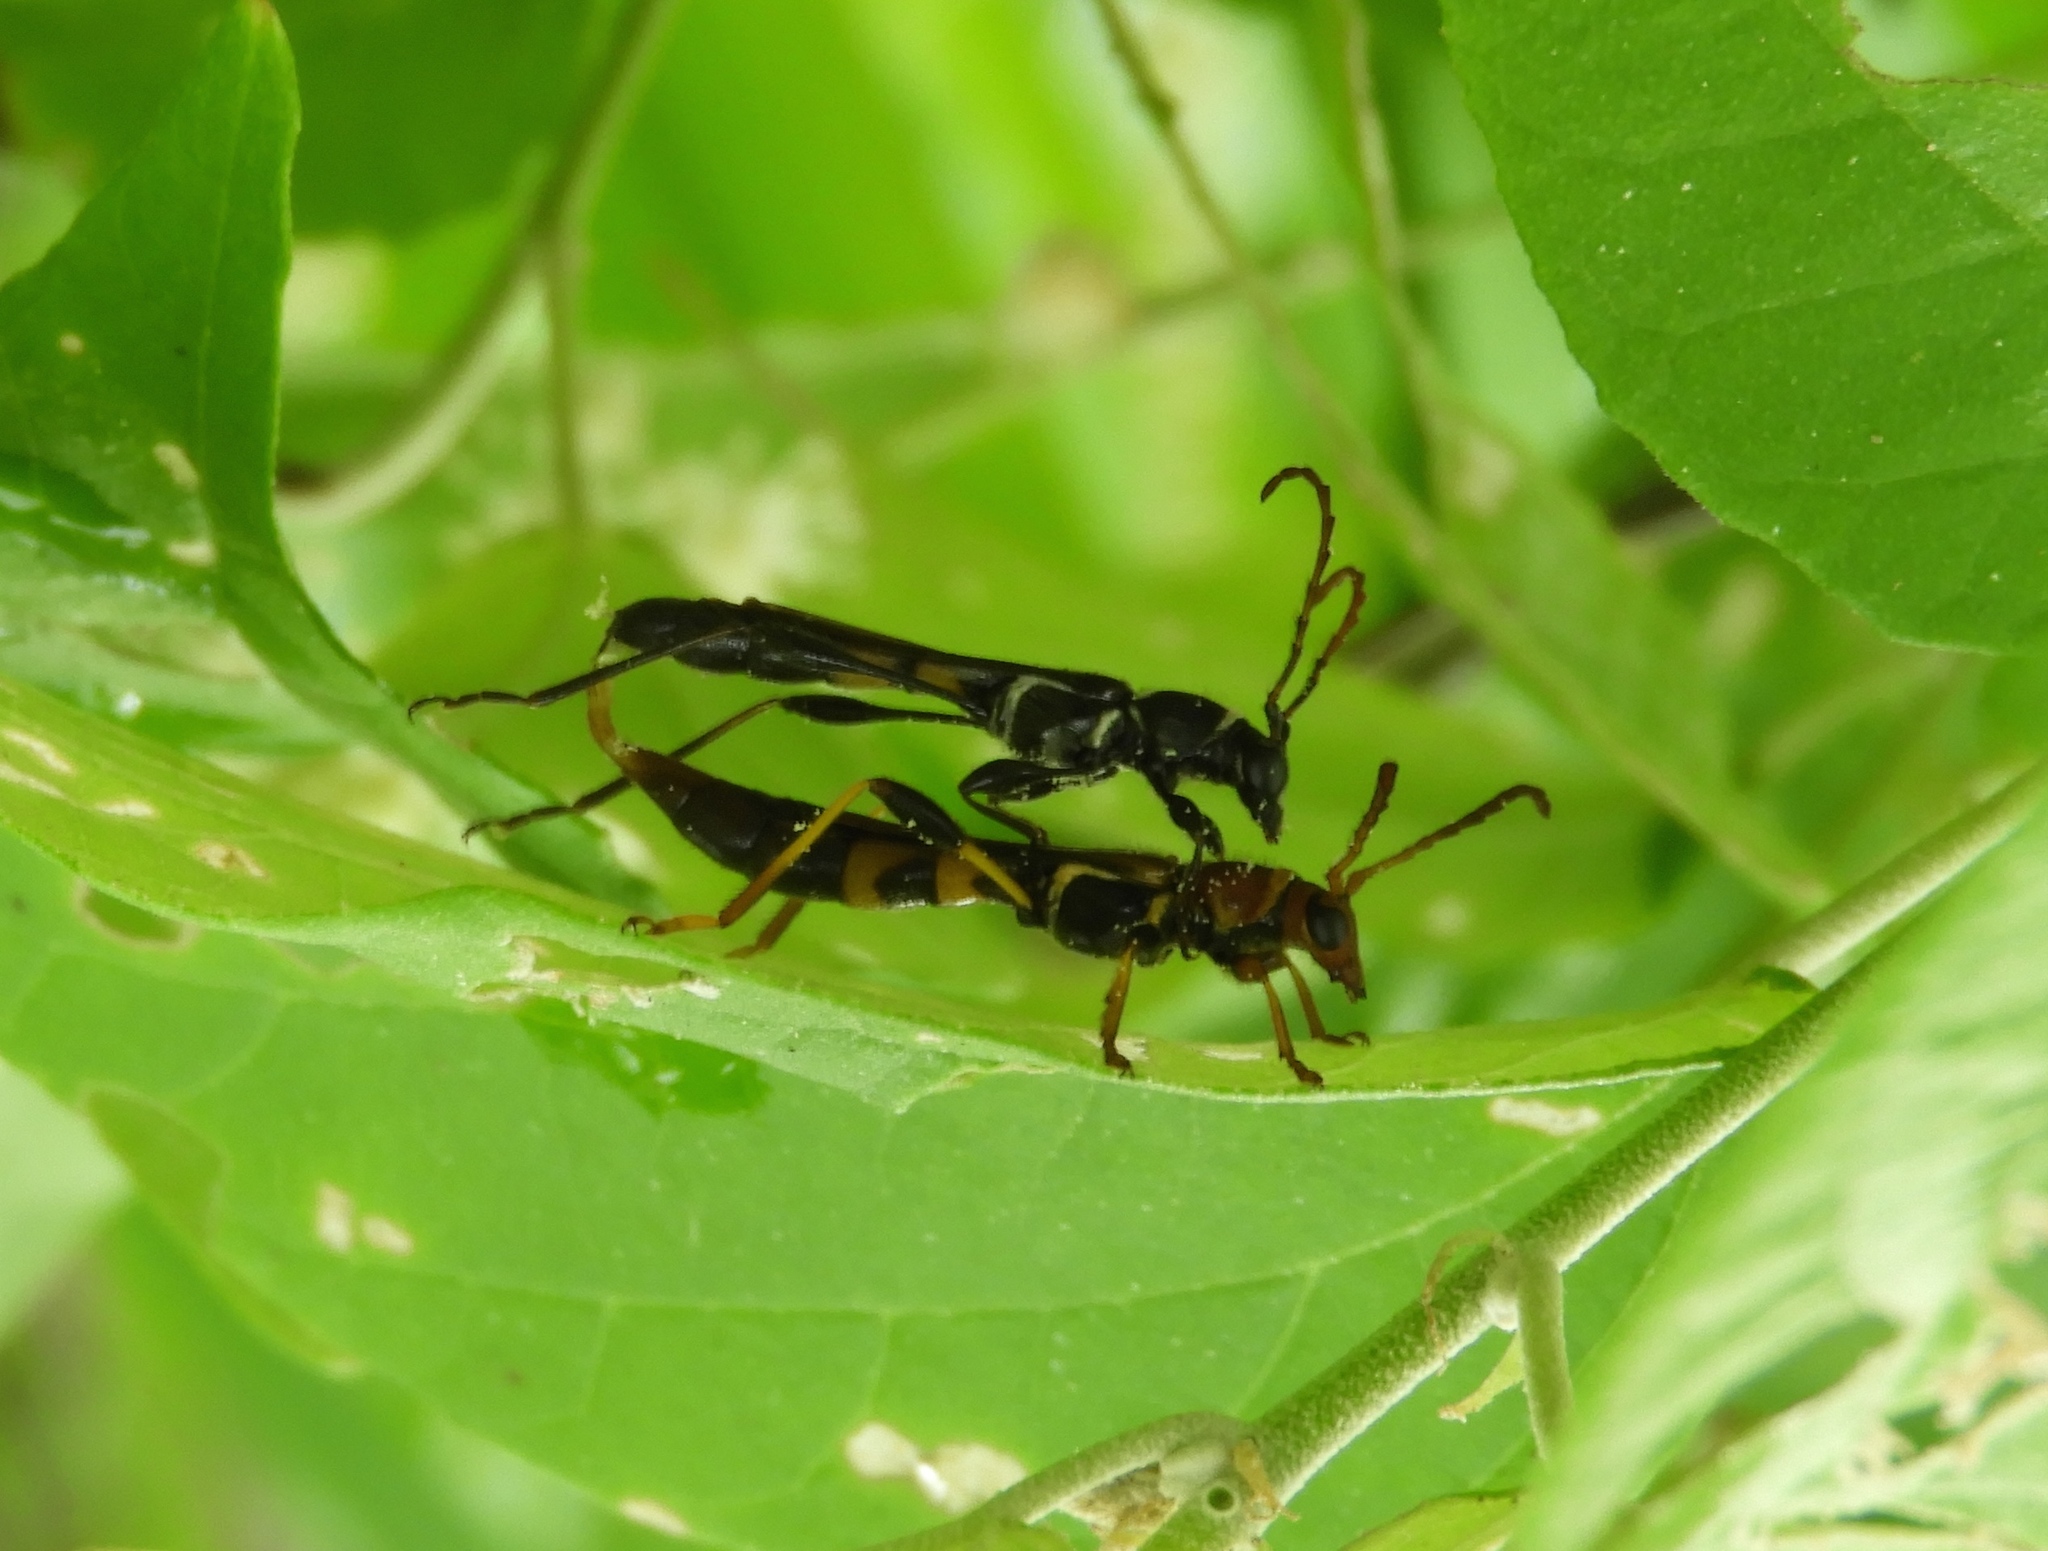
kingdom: Animalia
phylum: Arthropoda
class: Insecta
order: Coleoptera
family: Cerambycidae
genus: Odontocera
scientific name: Odontocera aurocincta
